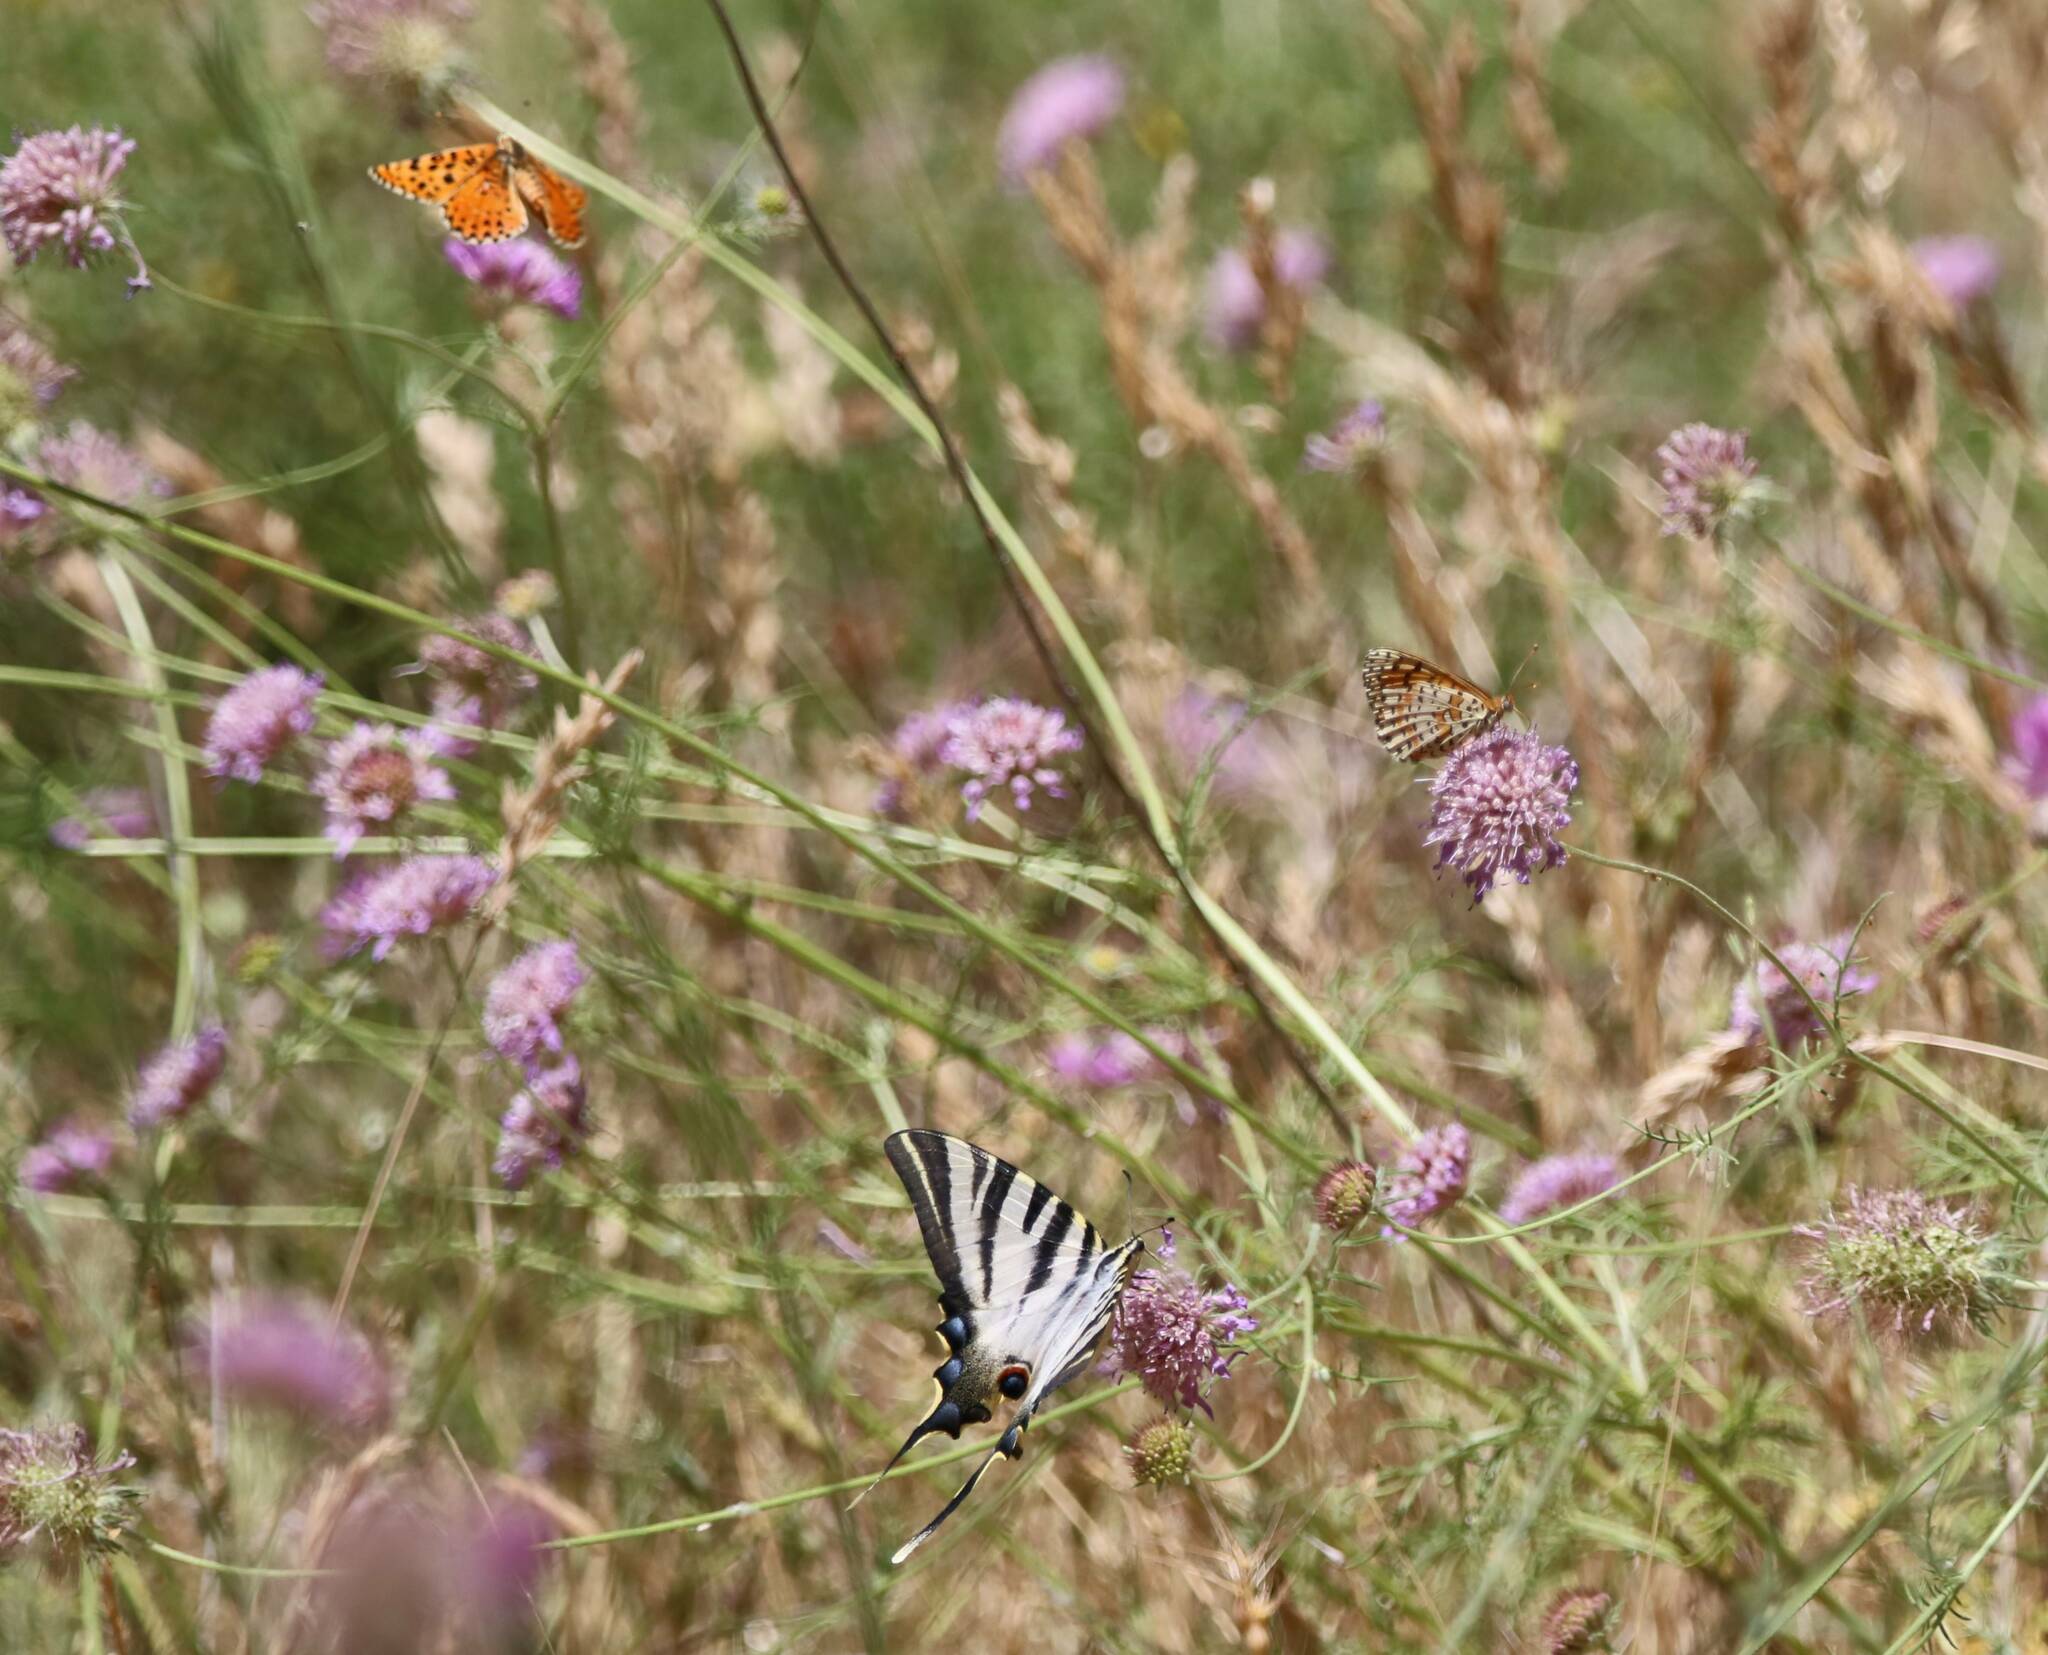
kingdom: Animalia
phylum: Arthropoda
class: Insecta
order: Lepidoptera
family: Papilionidae
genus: Iphiclides
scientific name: Iphiclides feisthamelii
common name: Iberian scarce swallowtail
